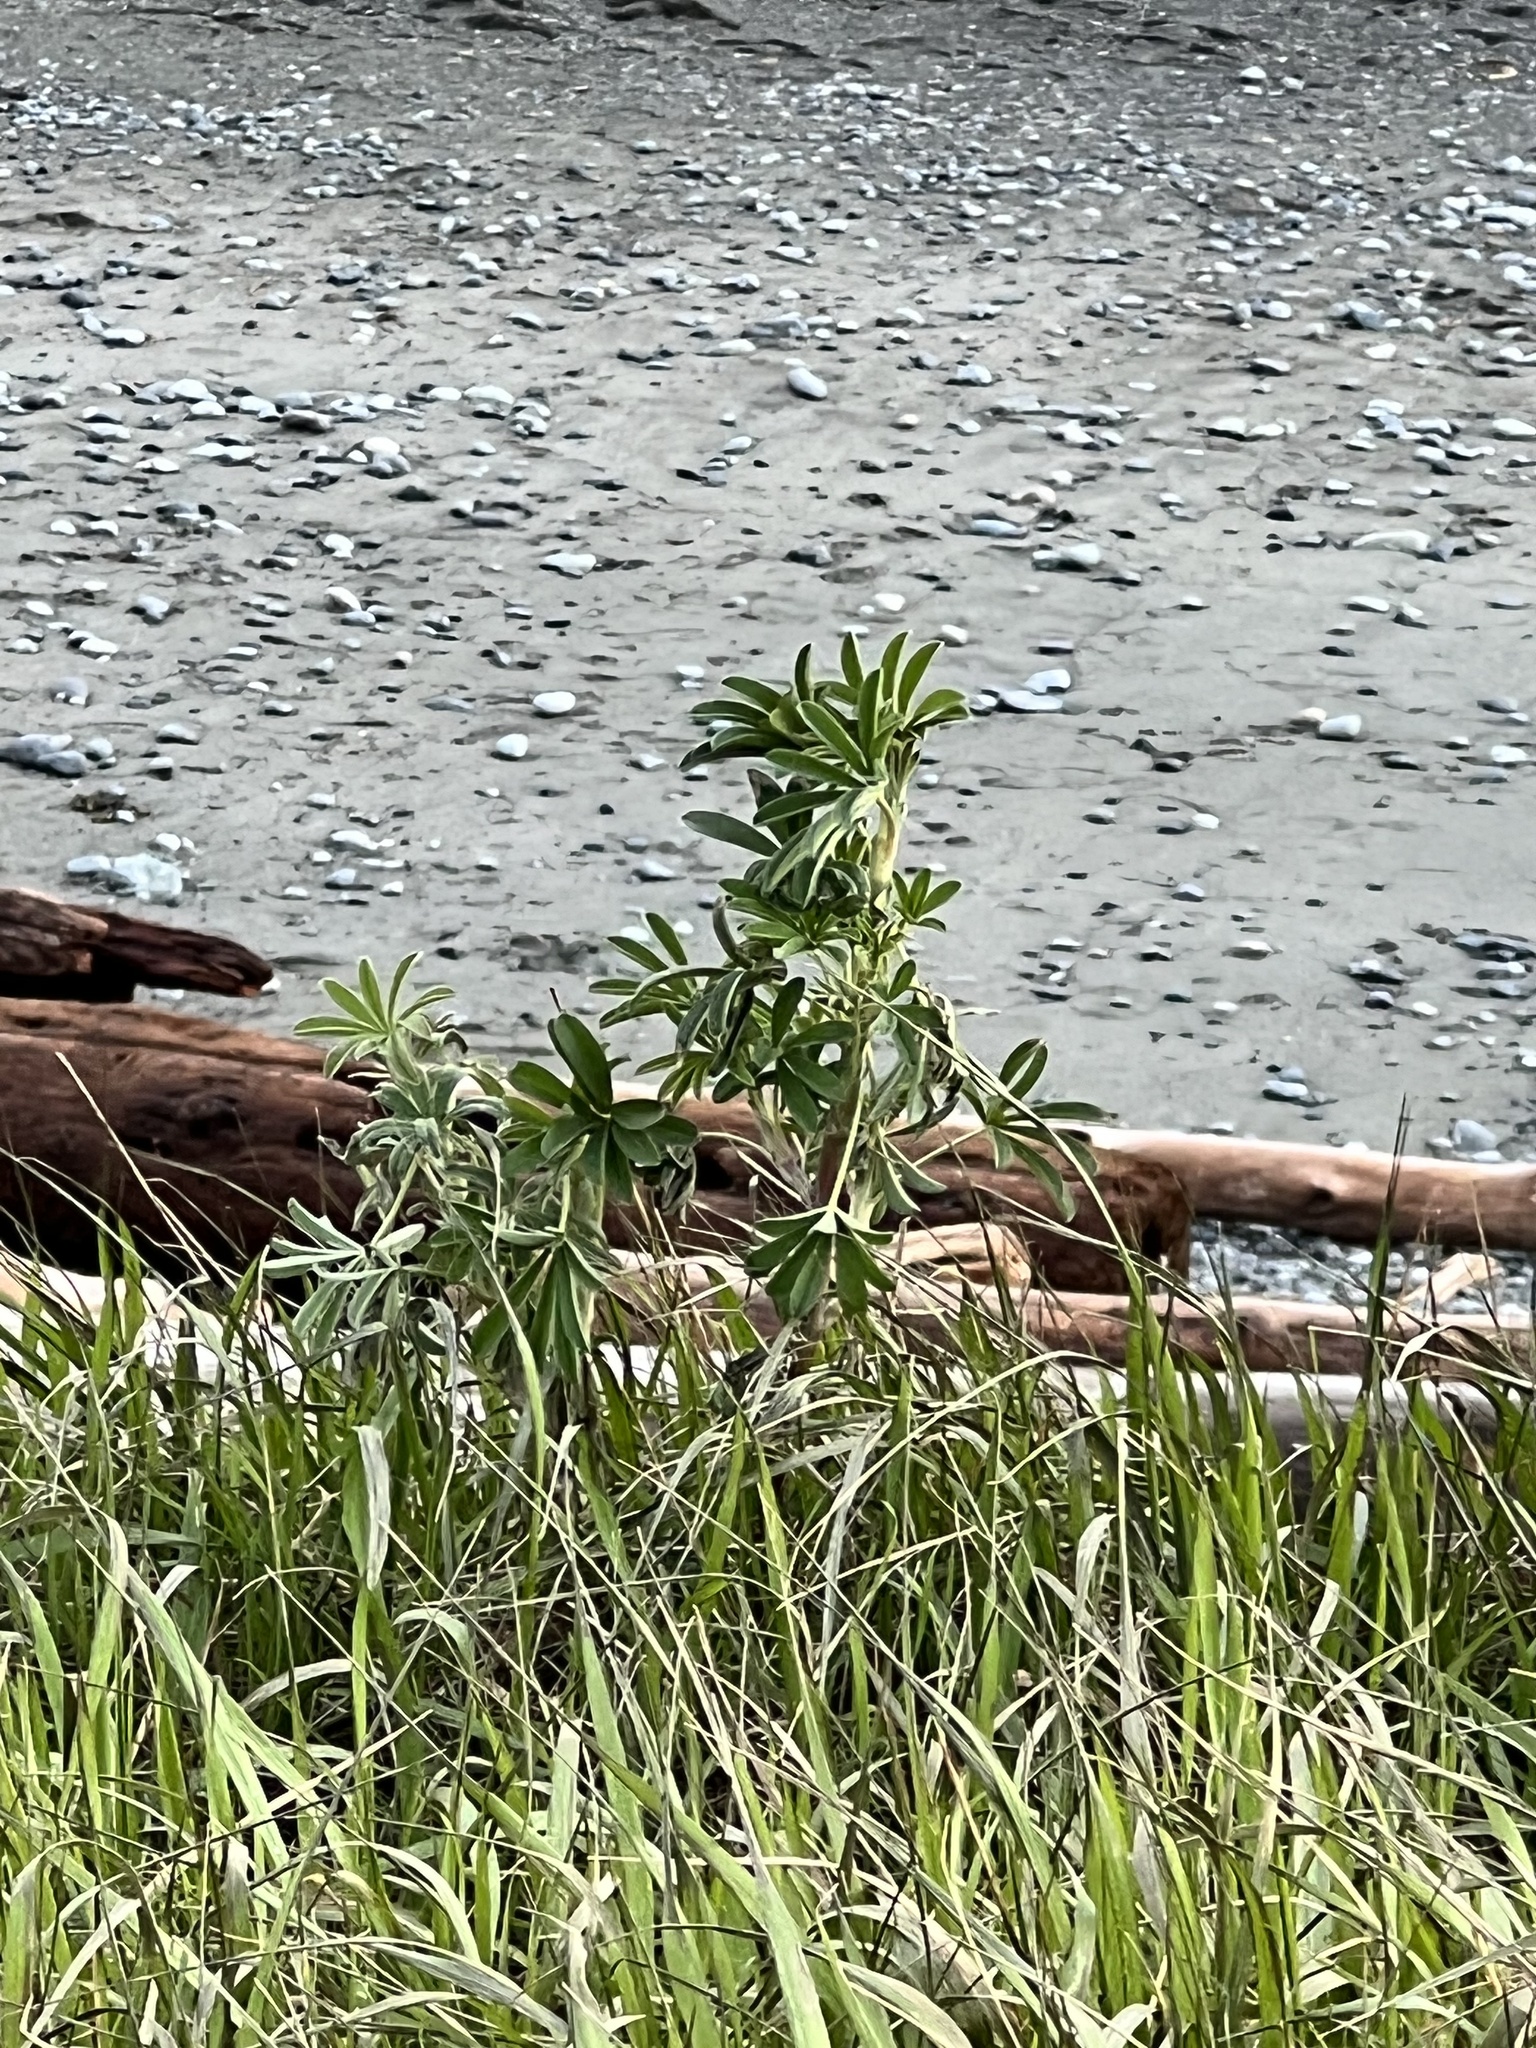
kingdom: Plantae
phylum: Tracheophyta
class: Magnoliopsida
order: Fabales
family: Fabaceae
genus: Lupinus
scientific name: Lupinus arboreus
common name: Yellow bush lupine
